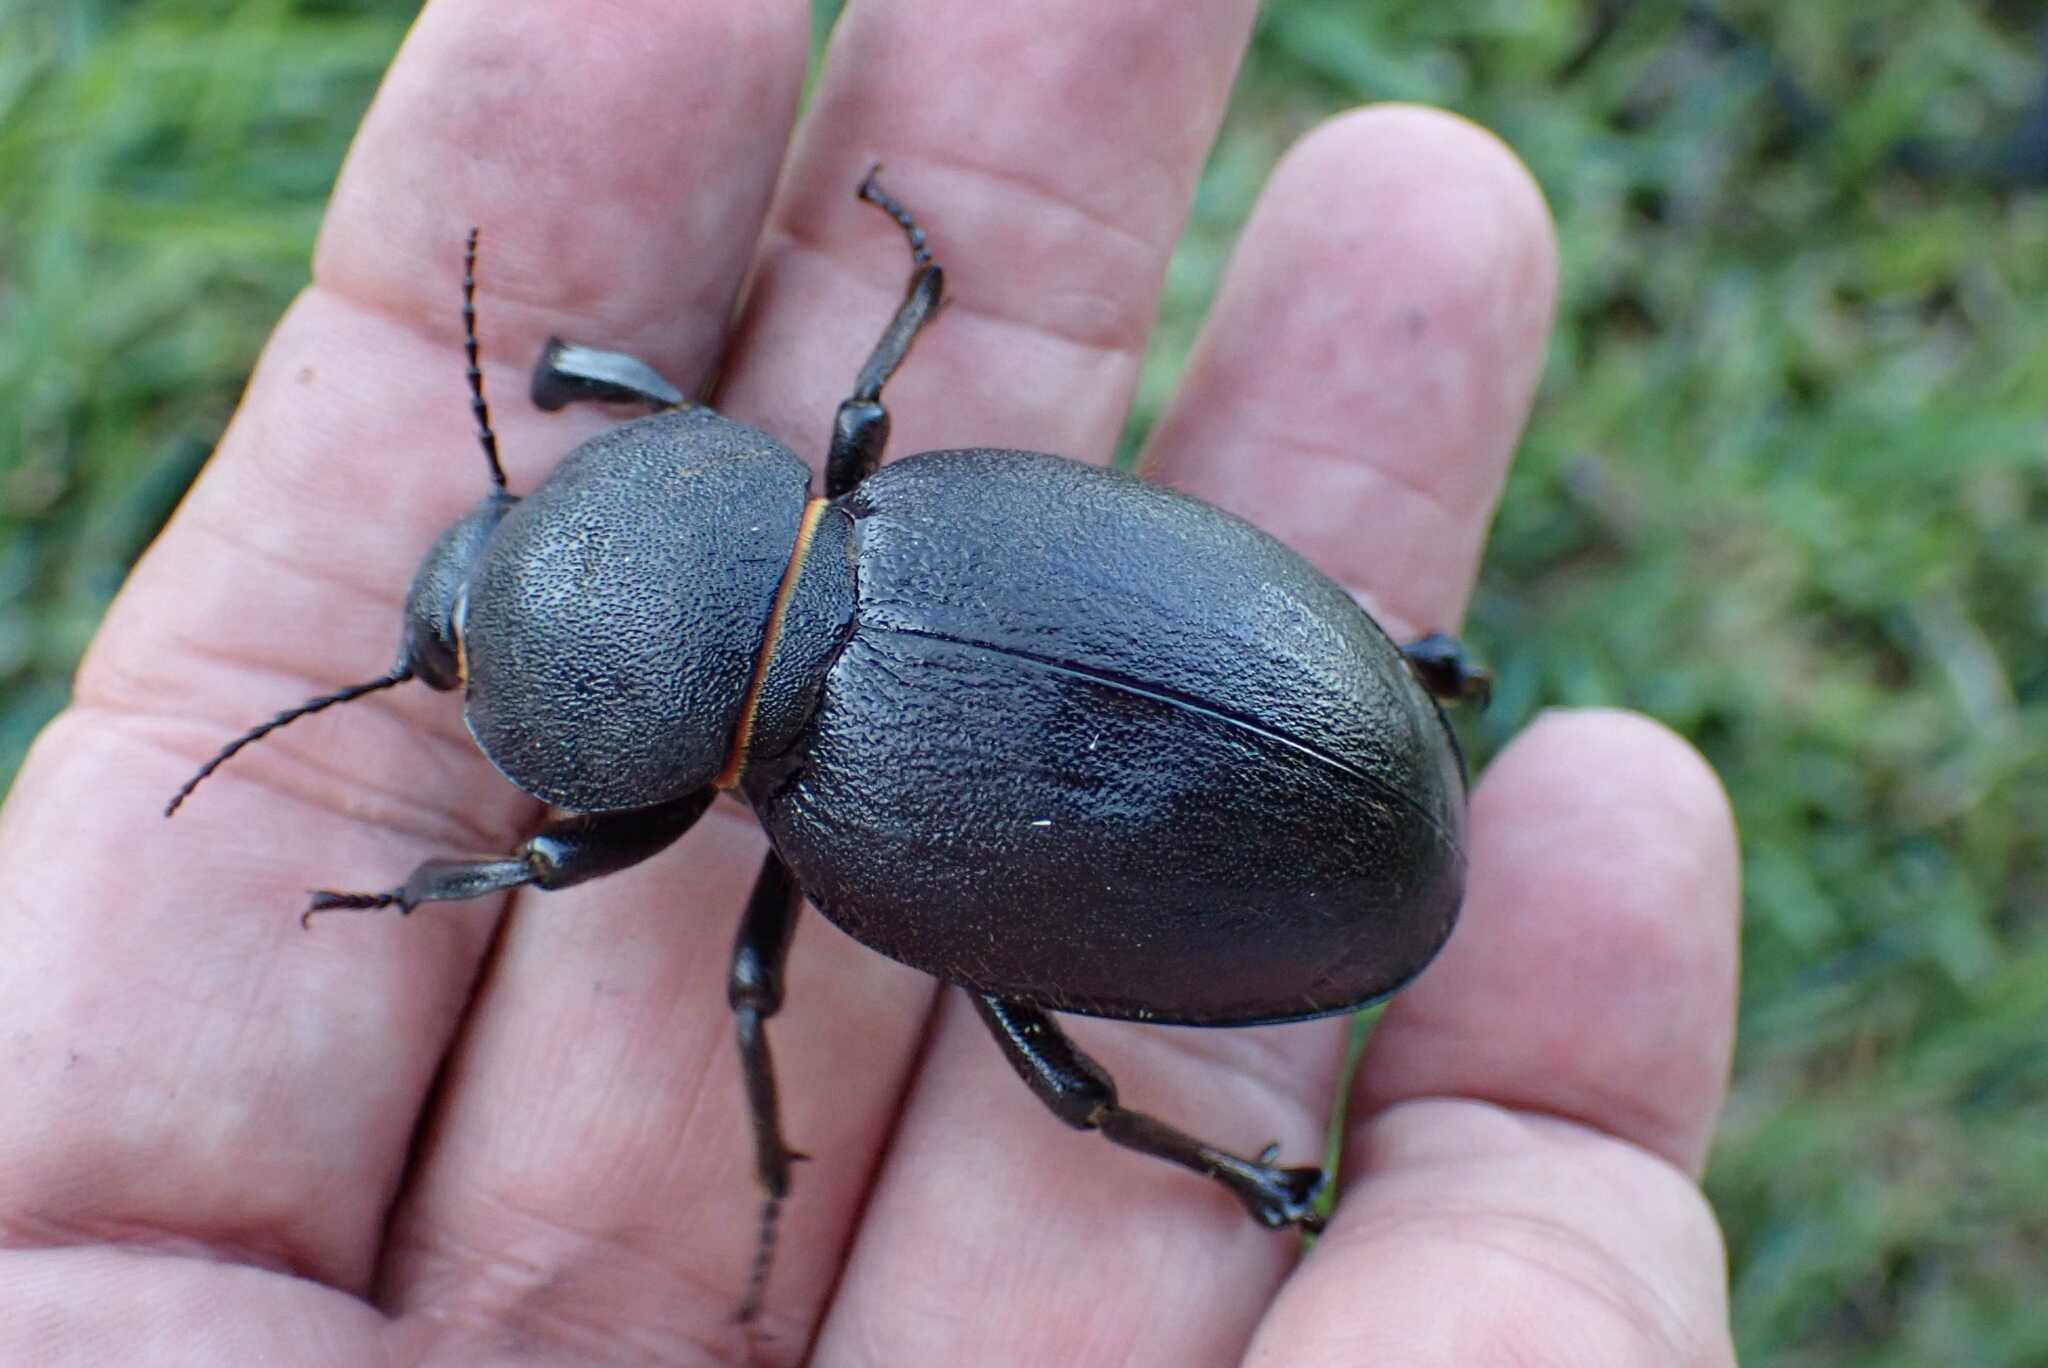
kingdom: Animalia
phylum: Arthropoda
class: Insecta
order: Coleoptera
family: Tenebrionidae
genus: Ocnodes
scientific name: Ocnodes procrustes
